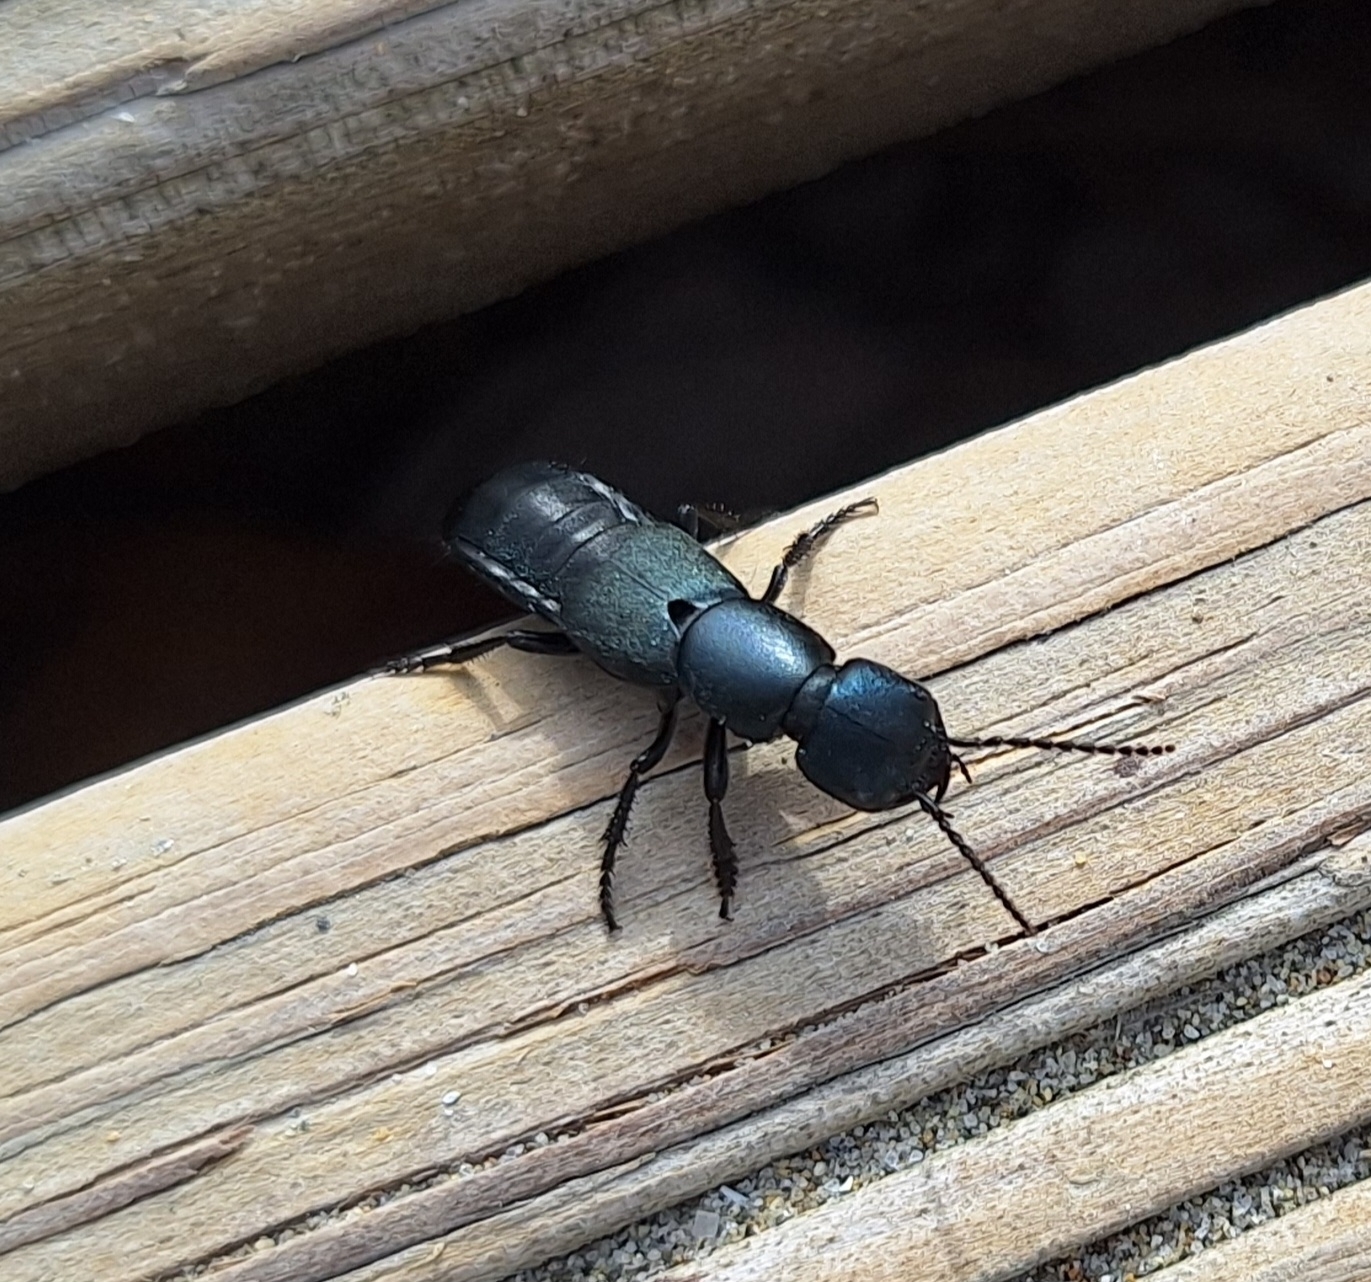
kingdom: Animalia
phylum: Arthropoda
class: Insecta
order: Coleoptera
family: Staphylinidae
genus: Ocypus
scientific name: Ocypus ophthalmicus
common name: Blue rove-beetle
